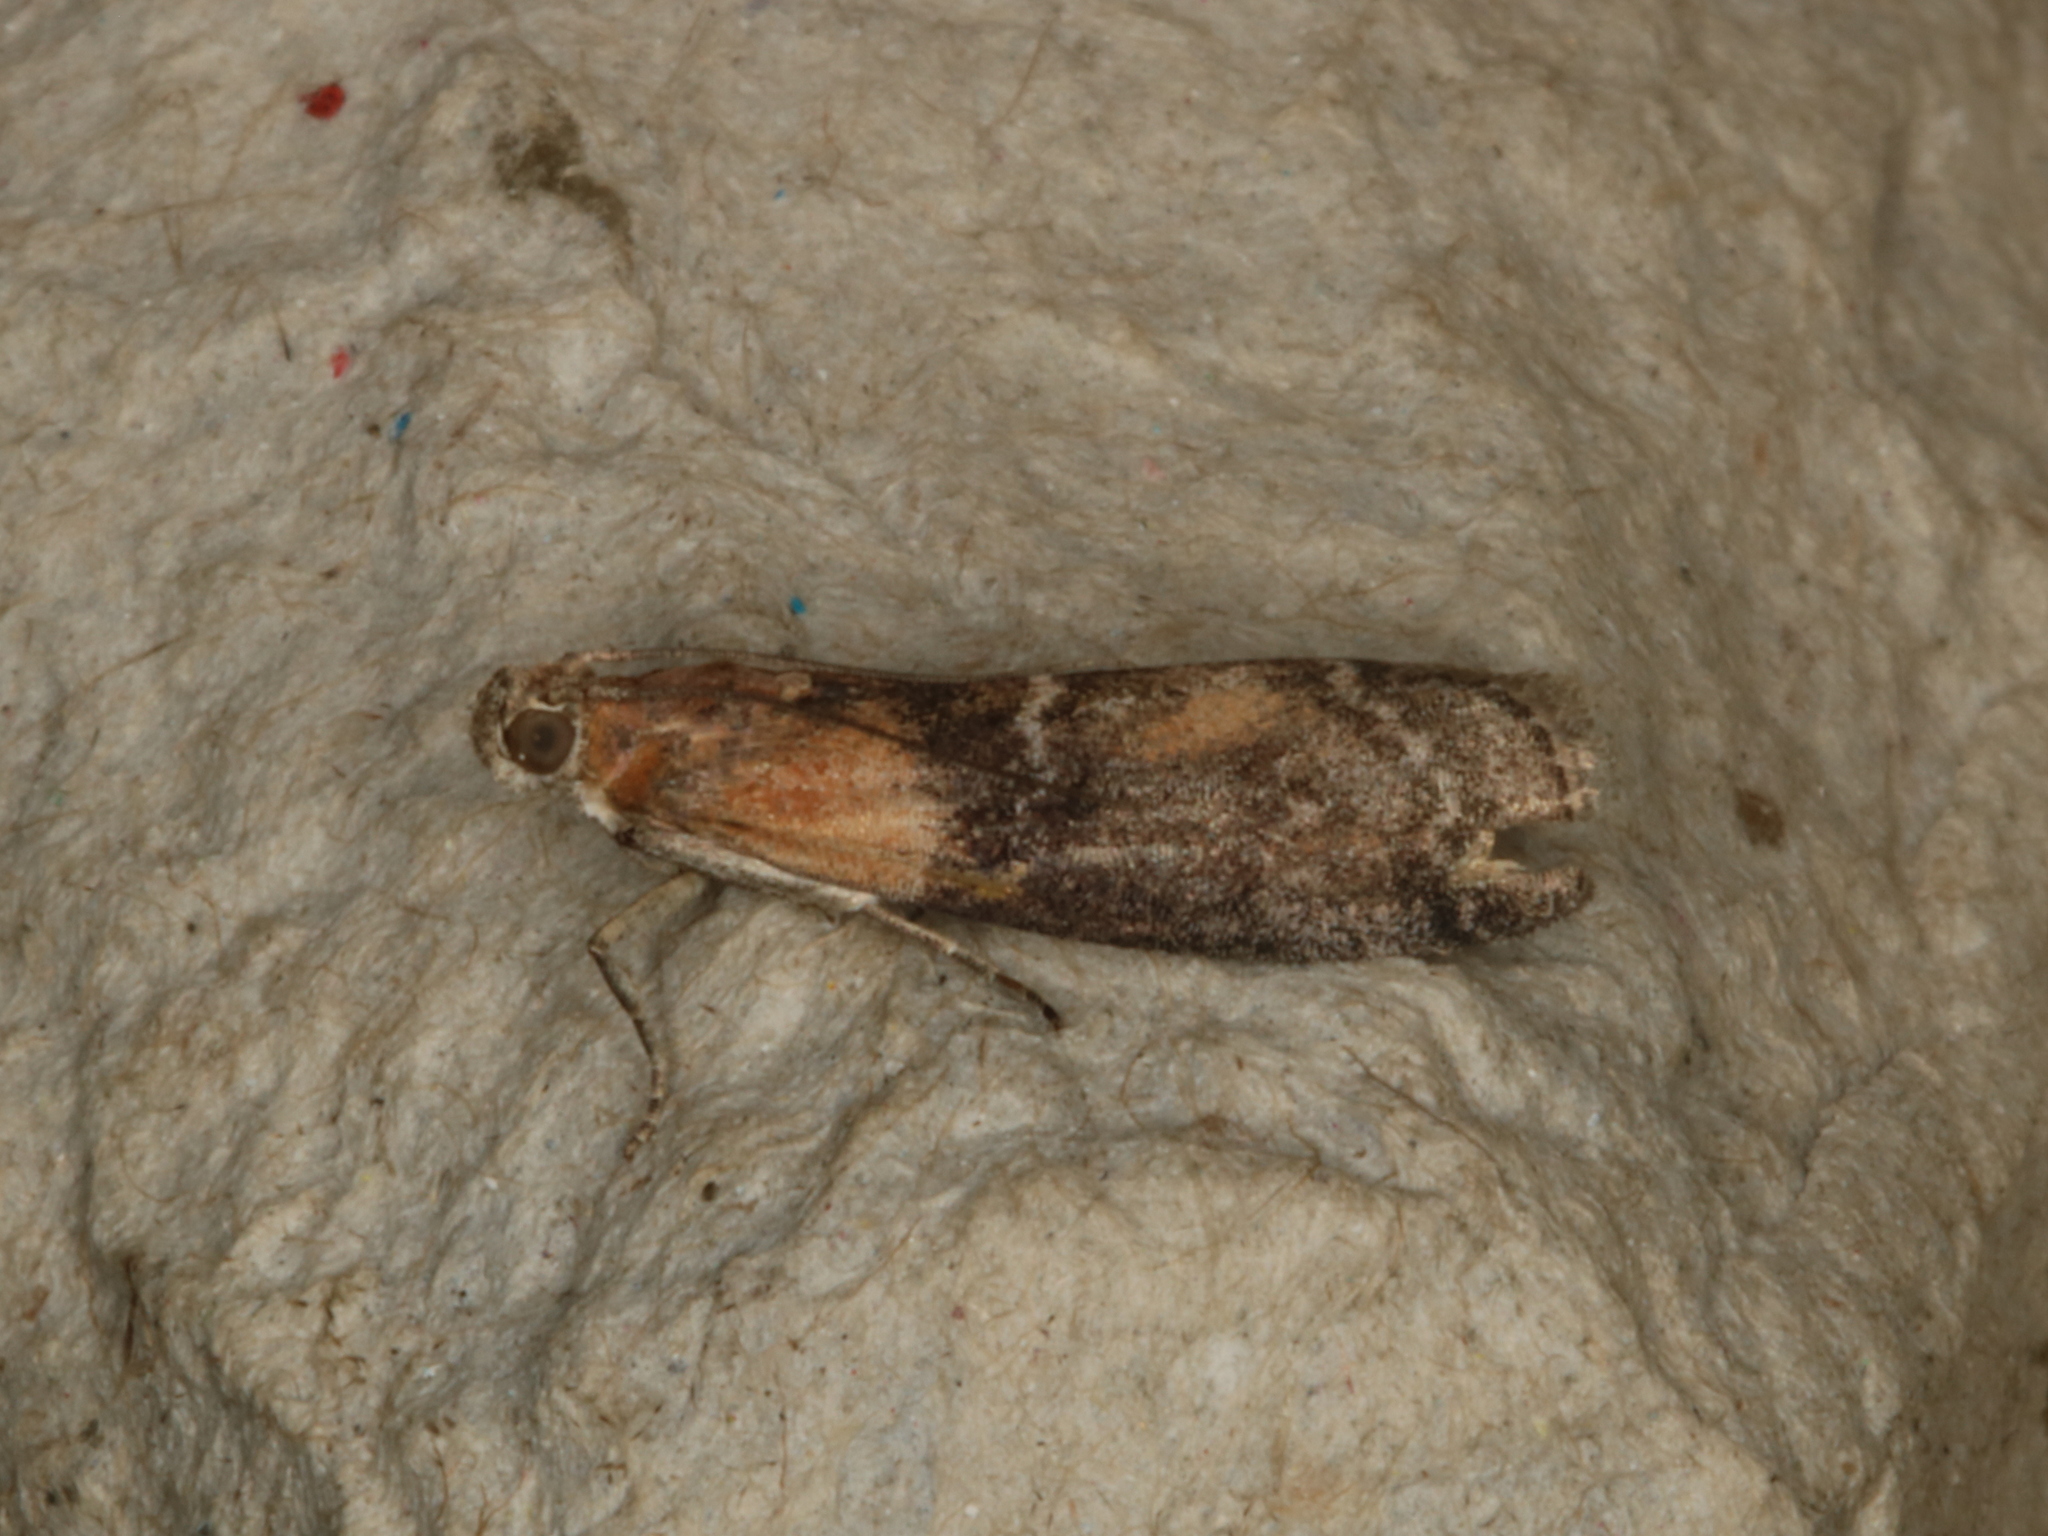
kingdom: Animalia
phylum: Arthropoda
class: Insecta
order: Lepidoptera
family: Pyralidae
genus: Sciota
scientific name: Sciota adelphella
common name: Willow knot-horn
